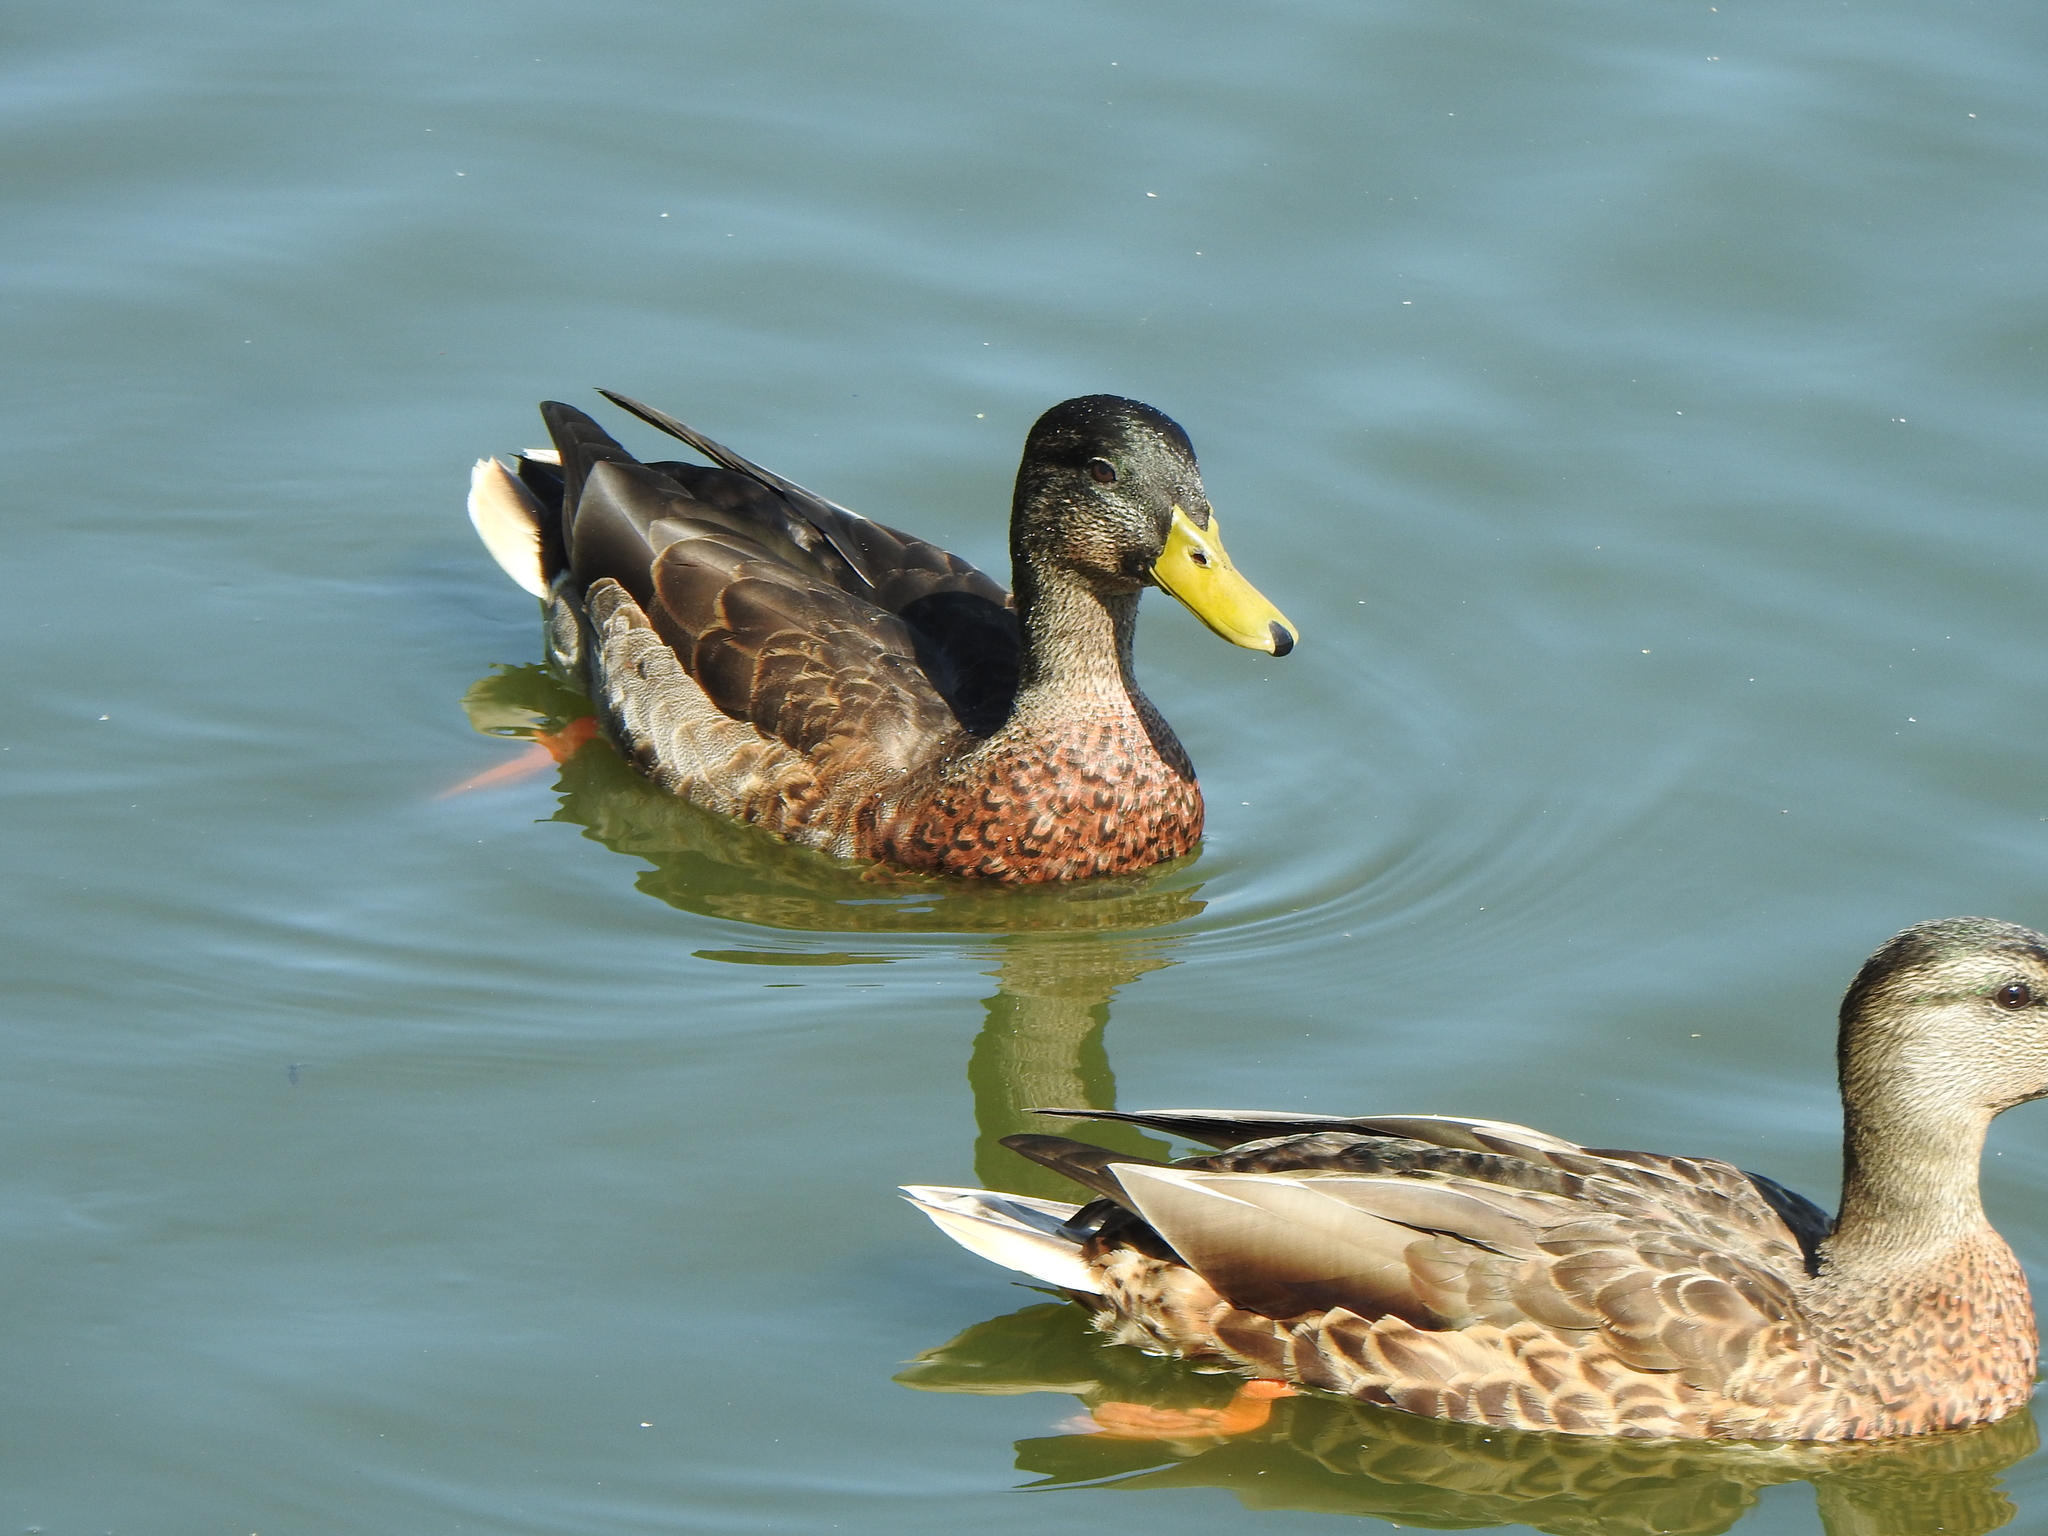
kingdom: Animalia
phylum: Chordata
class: Aves
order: Anseriformes
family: Anatidae
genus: Anas
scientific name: Anas platyrhynchos
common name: Mallard
